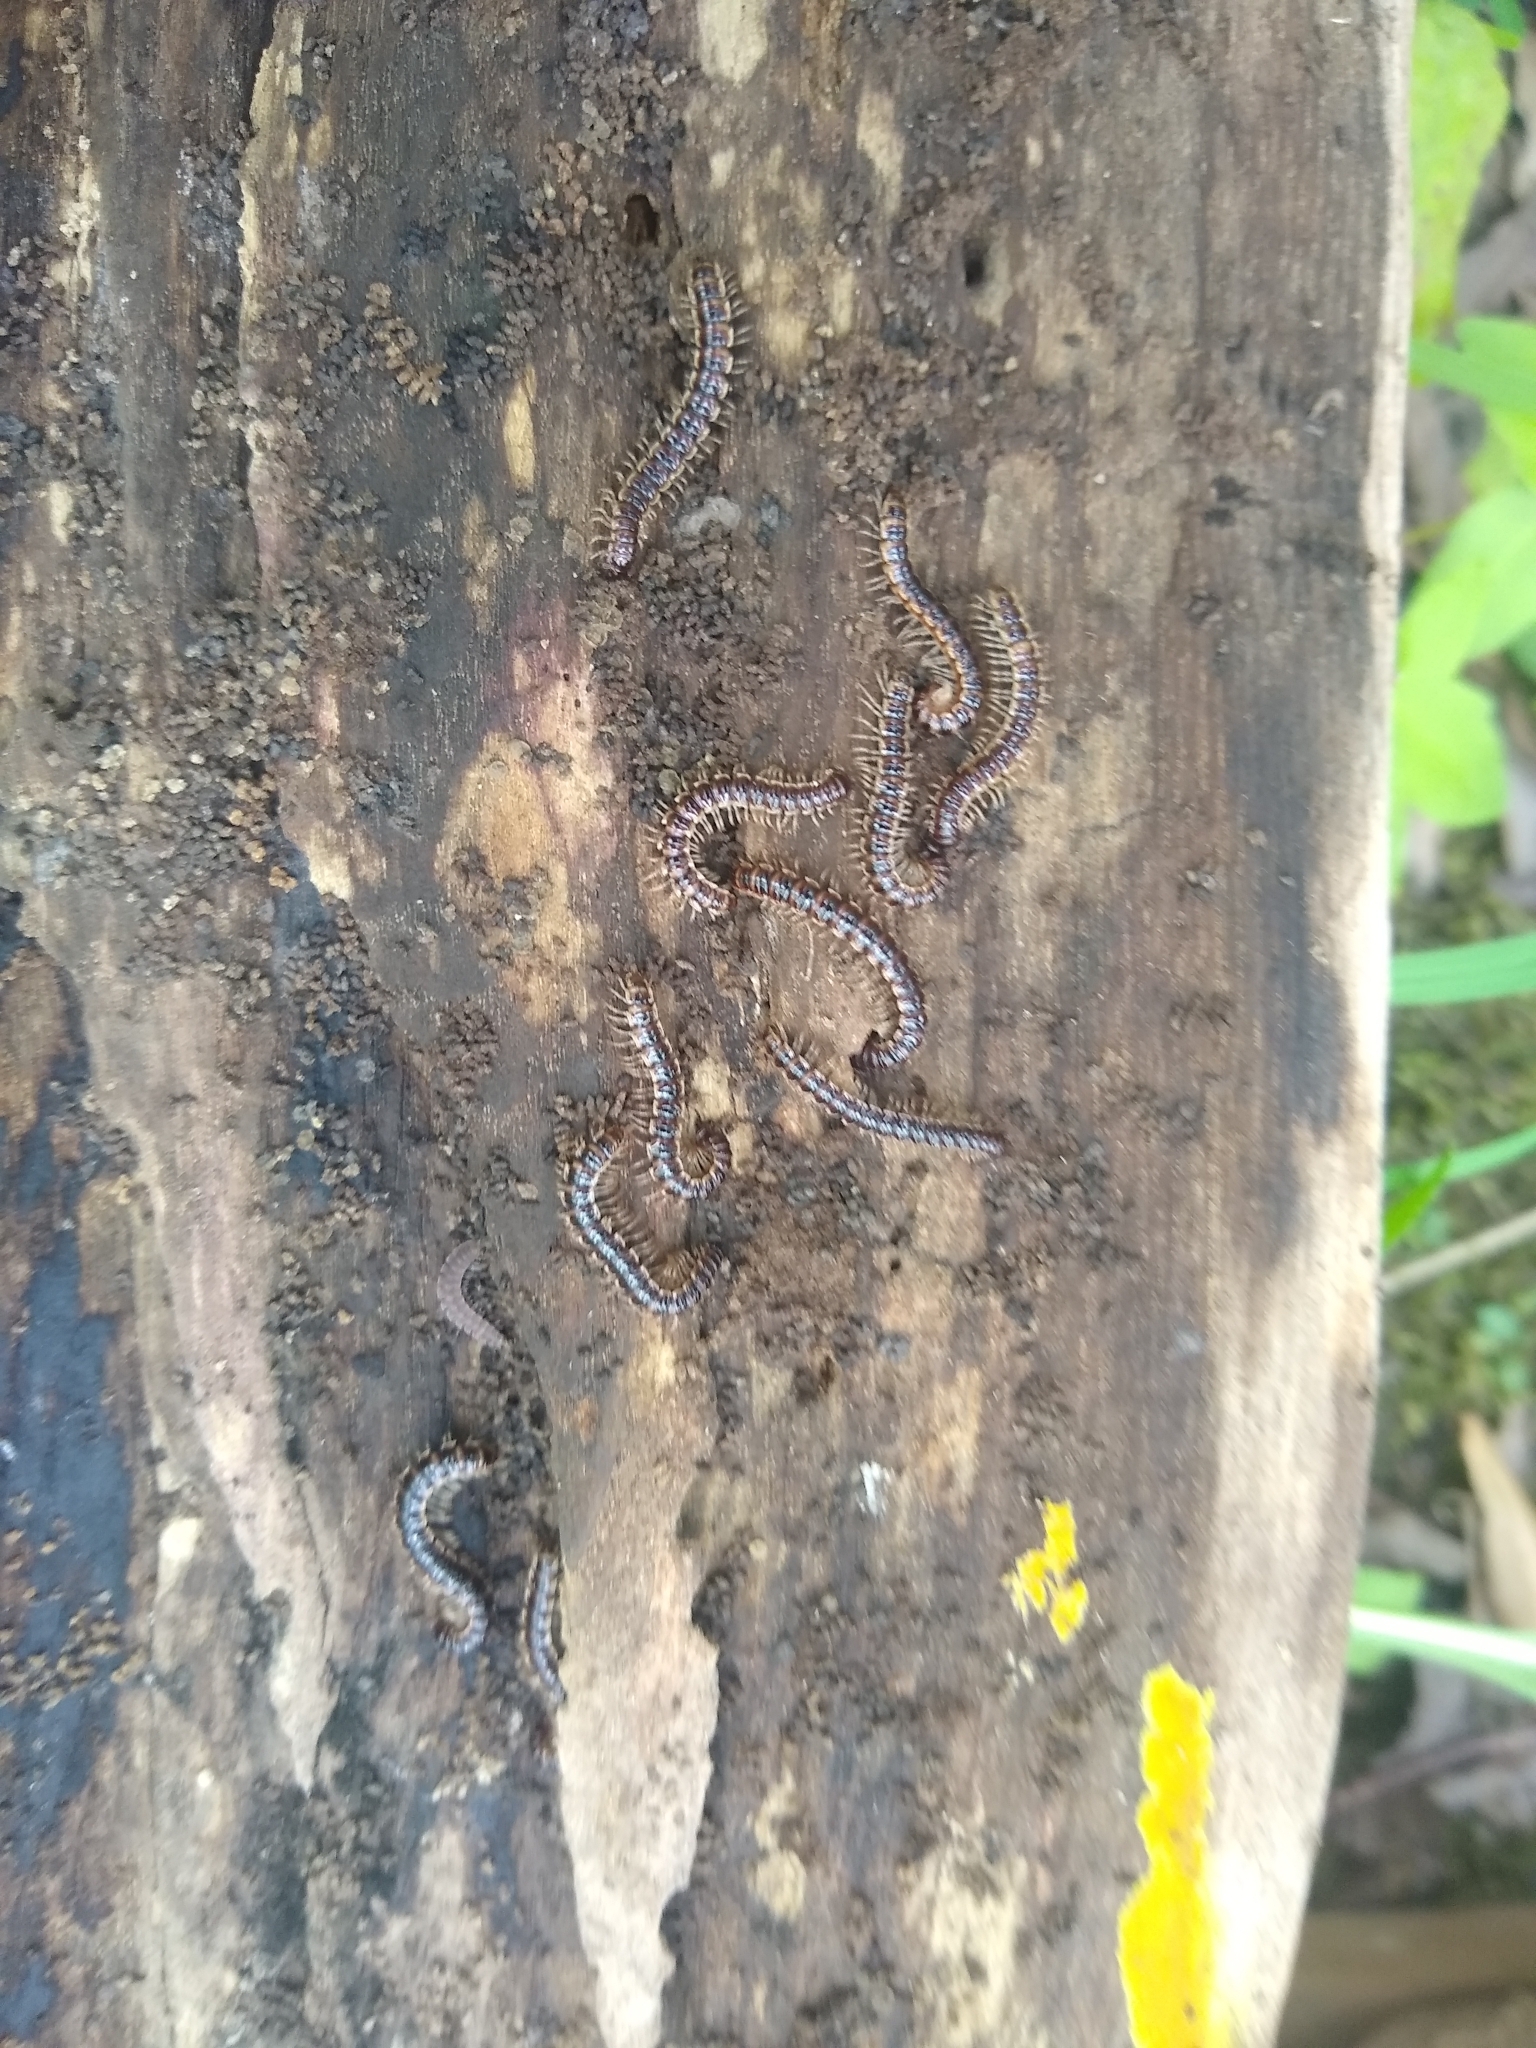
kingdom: Animalia
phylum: Arthropoda
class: Diplopoda
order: Polydesmida
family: Paradoxosomatidae
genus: Oxidus
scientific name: Oxidus gracilis
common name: Greenhouse millipede
